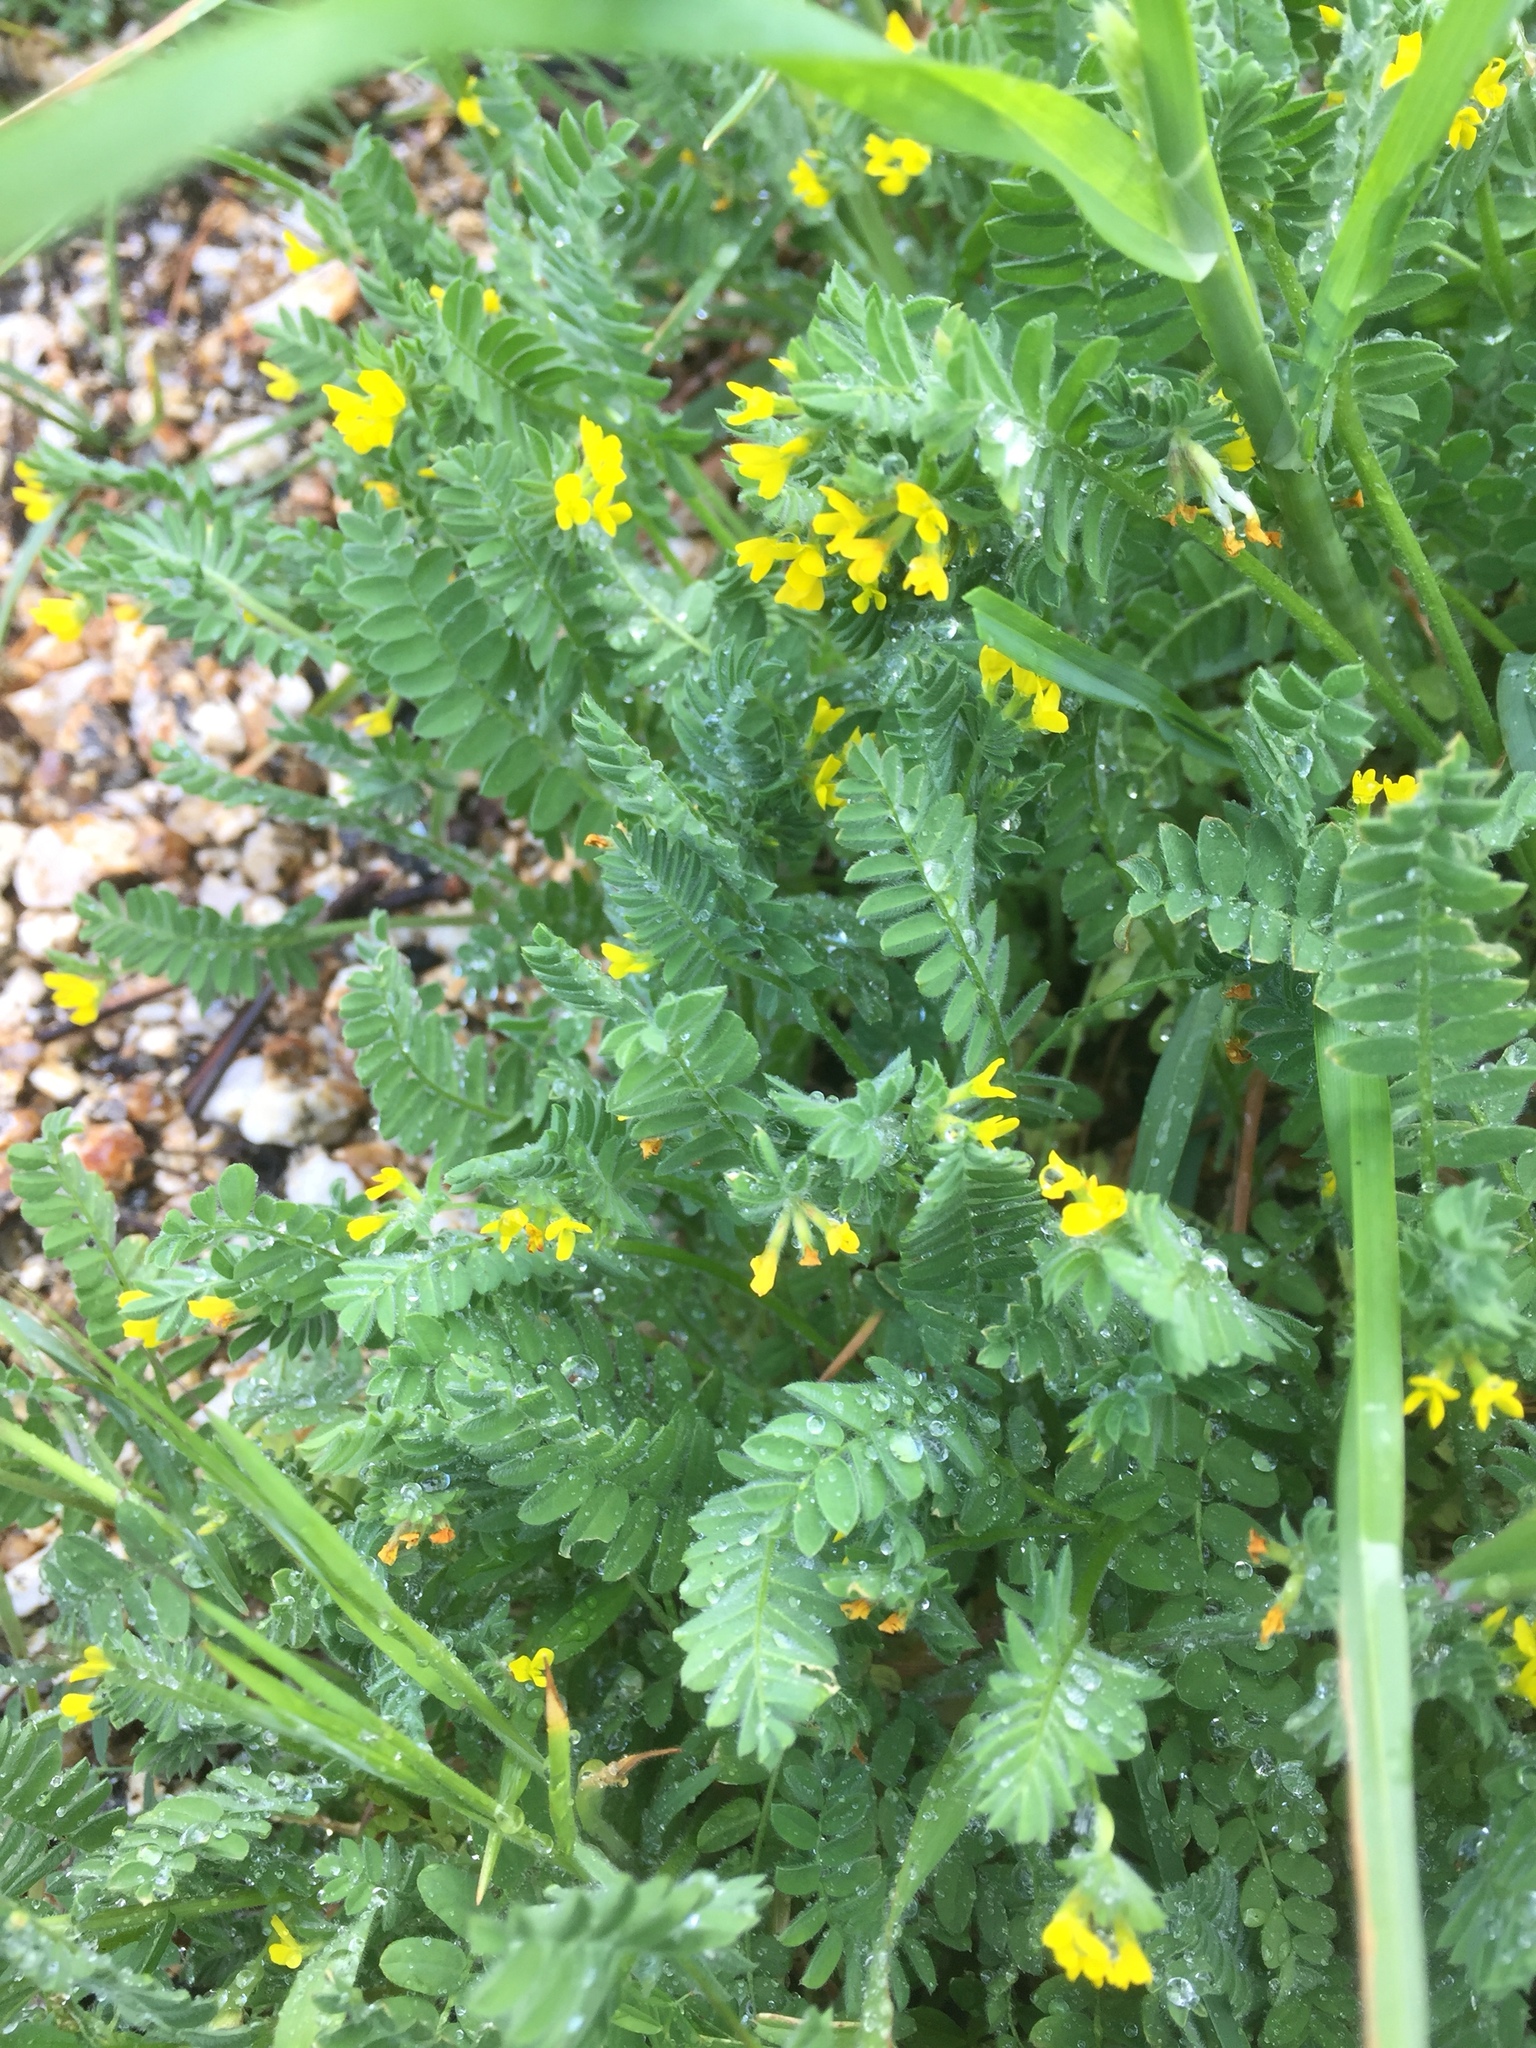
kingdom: Plantae
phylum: Tracheophyta
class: Magnoliopsida
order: Fabales
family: Fabaceae
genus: Ornithopus
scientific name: Ornithopus compressus
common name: Yellow serradella
